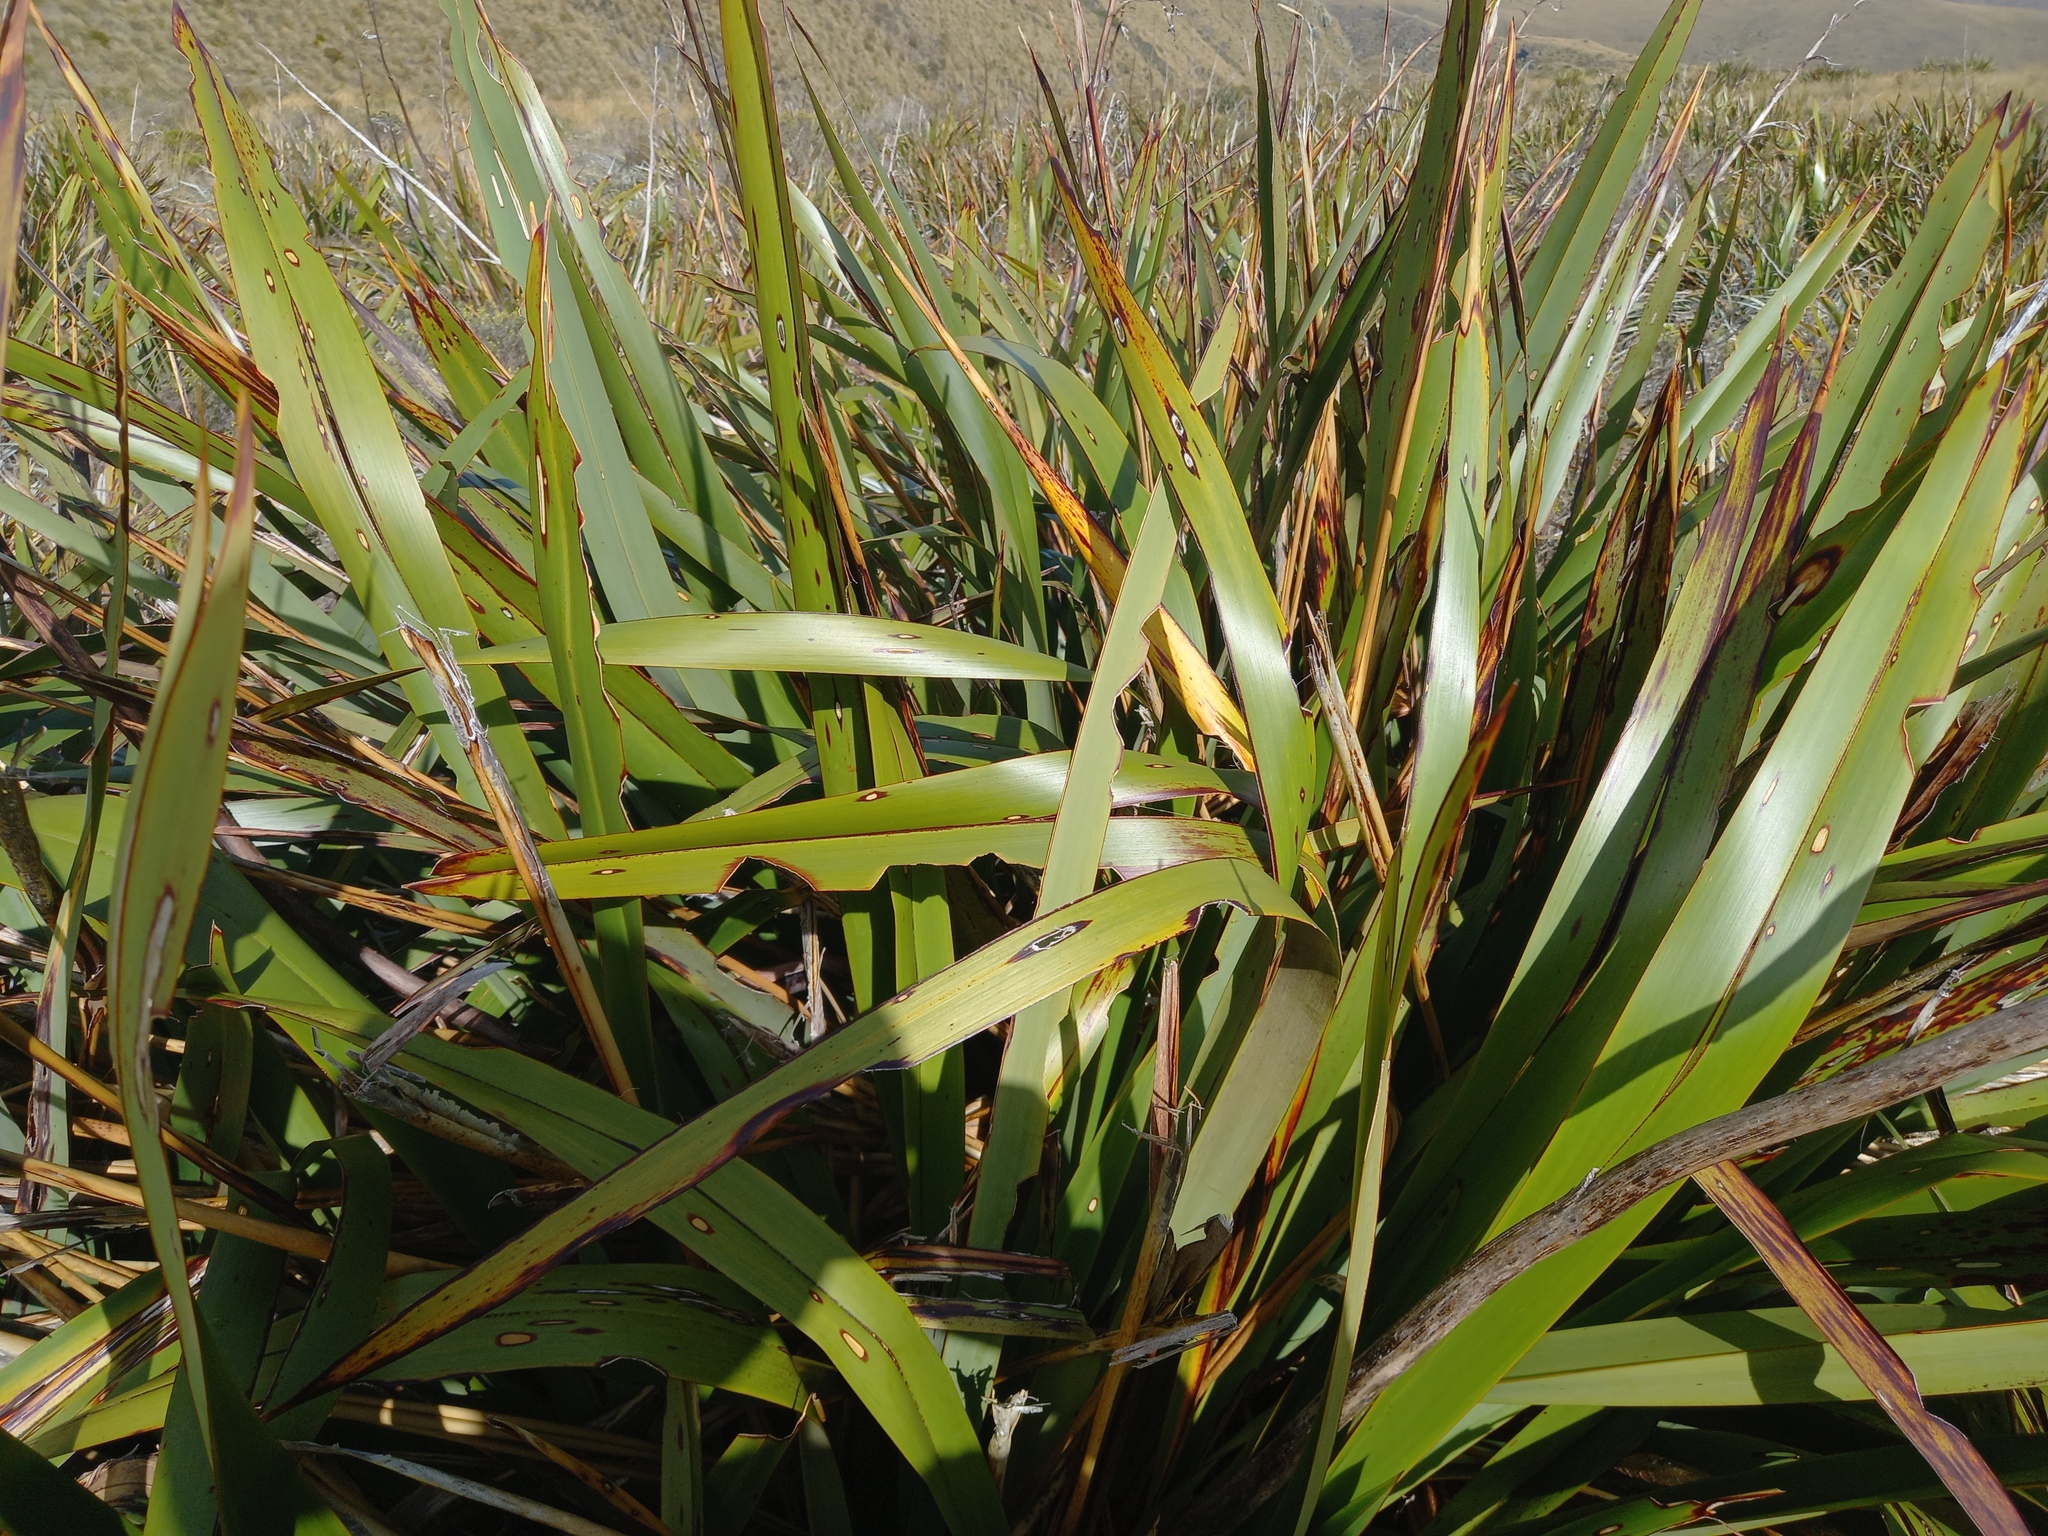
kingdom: Animalia
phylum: Arthropoda
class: Insecta
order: Lepidoptera
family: Noctuidae
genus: Ichneutica
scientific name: Ichneutica
